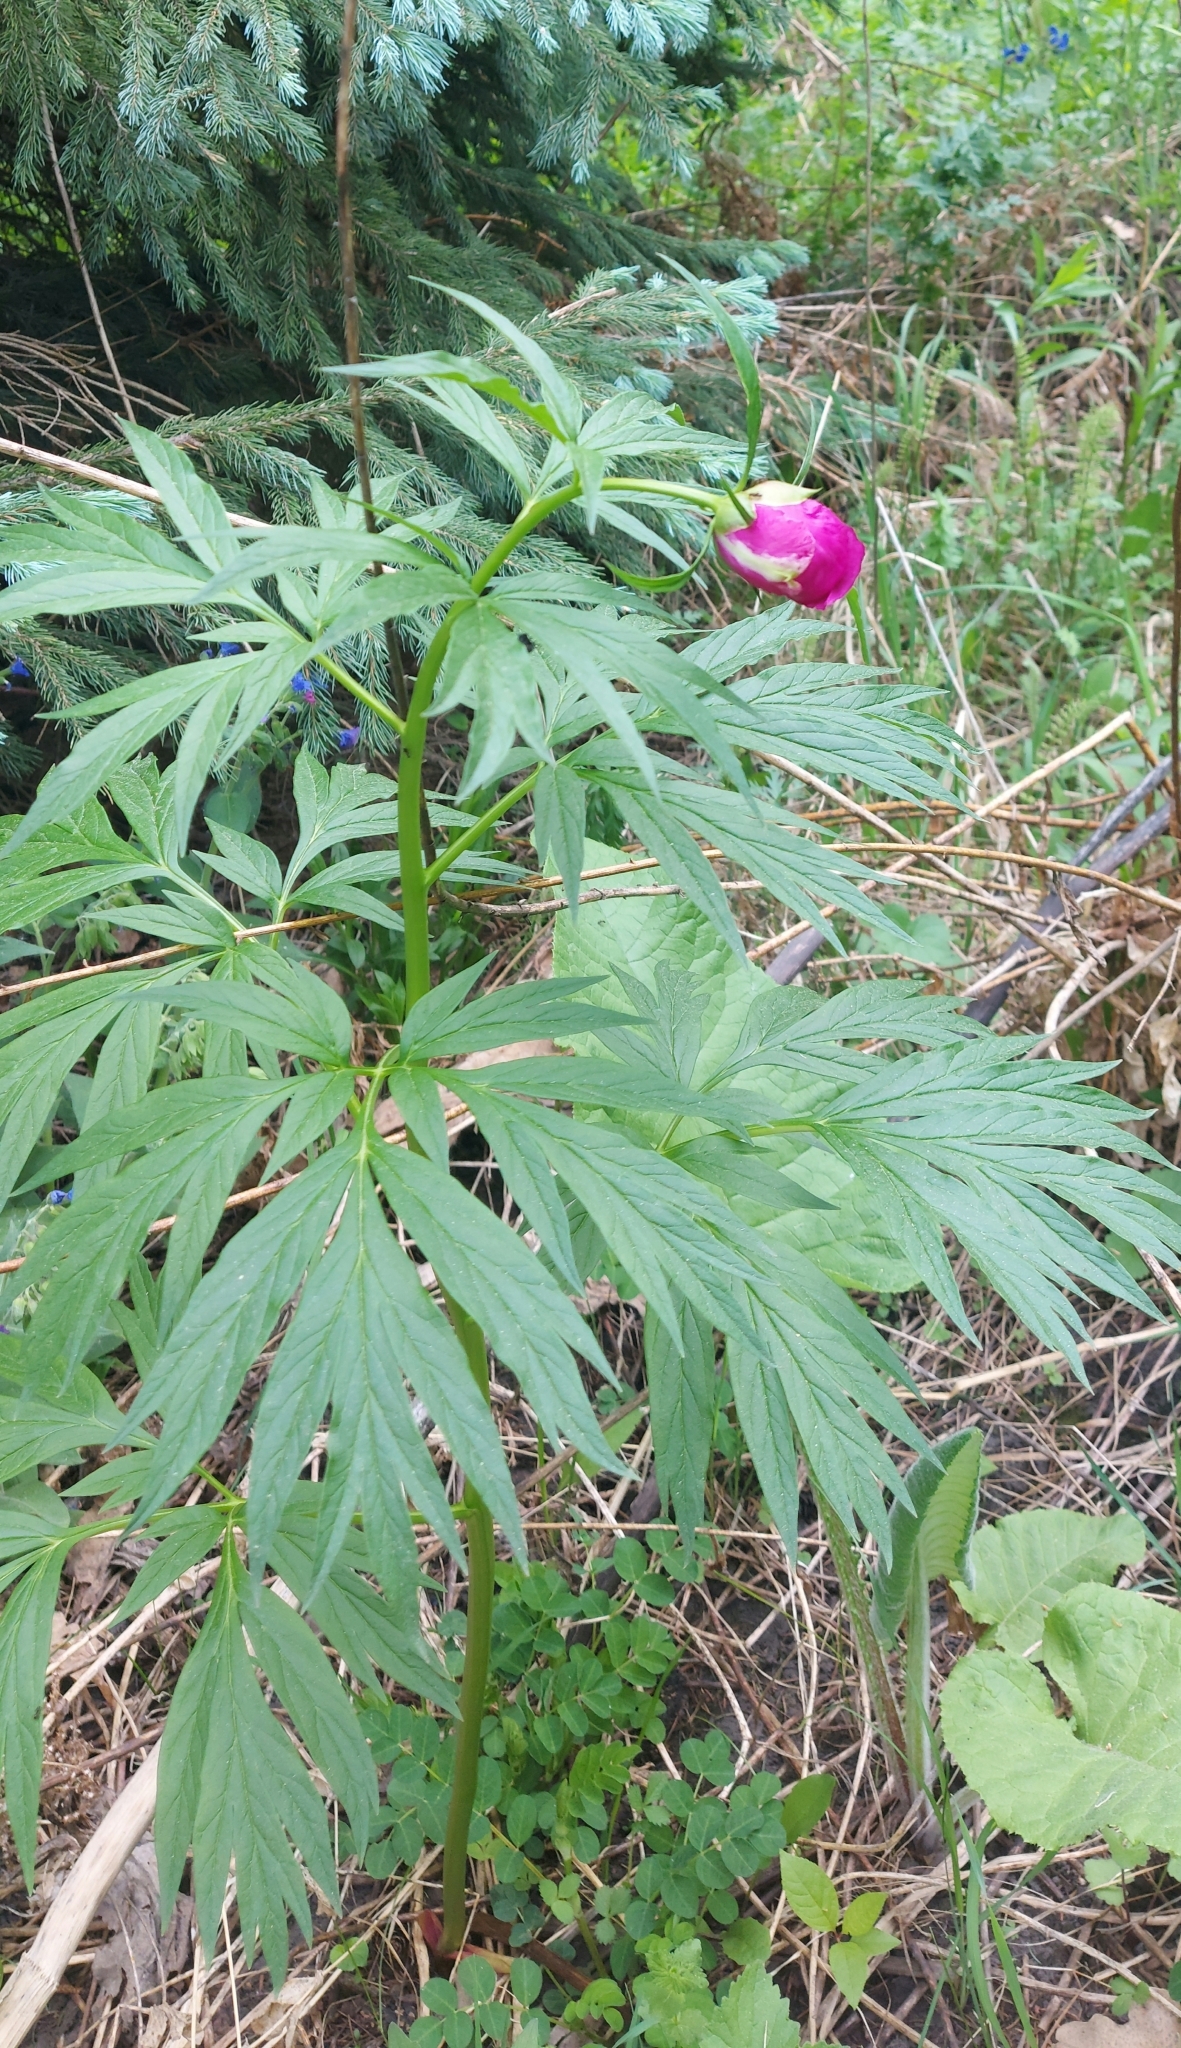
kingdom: Plantae
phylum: Tracheophyta
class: Magnoliopsida
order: Saxifragales
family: Paeoniaceae
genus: Paeonia
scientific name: Paeonia anomala
